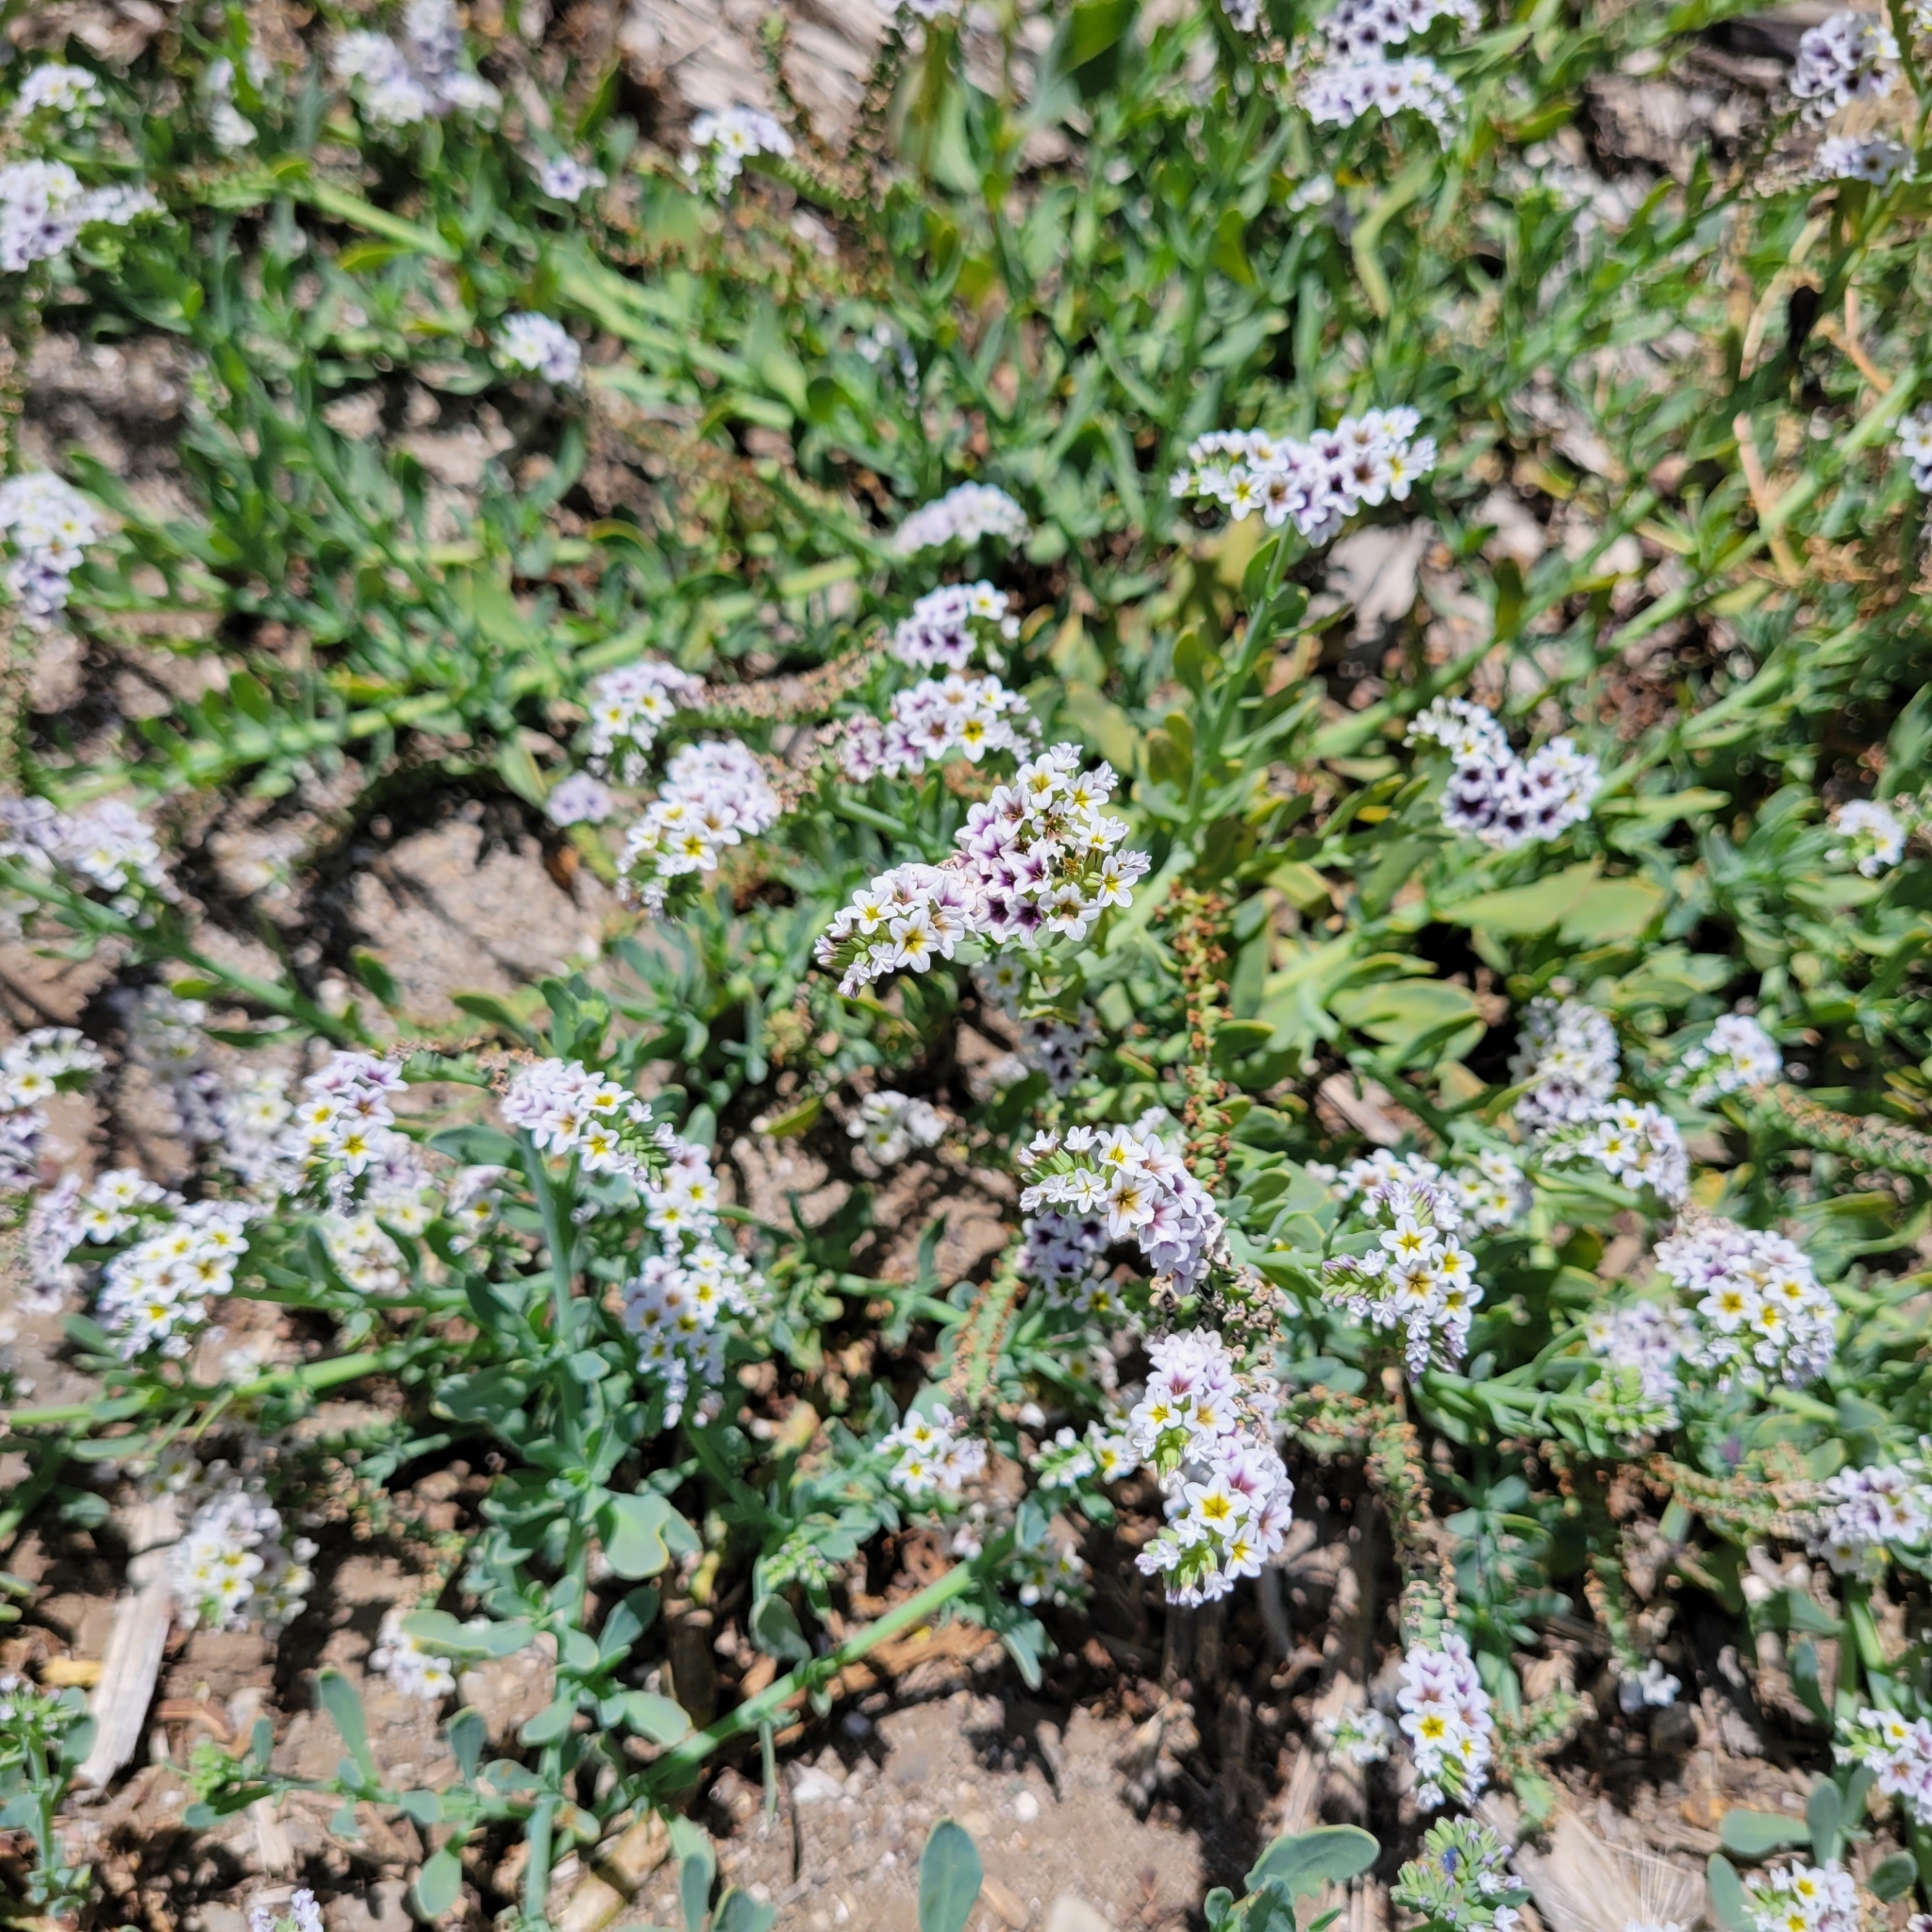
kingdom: Plantae
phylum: Tracheophyta
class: Magnoliopsida
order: Boraginales
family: Heliotropiaceae
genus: Heliotropium
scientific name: Heliotropium curassavicum
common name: Seaside heliotrope
